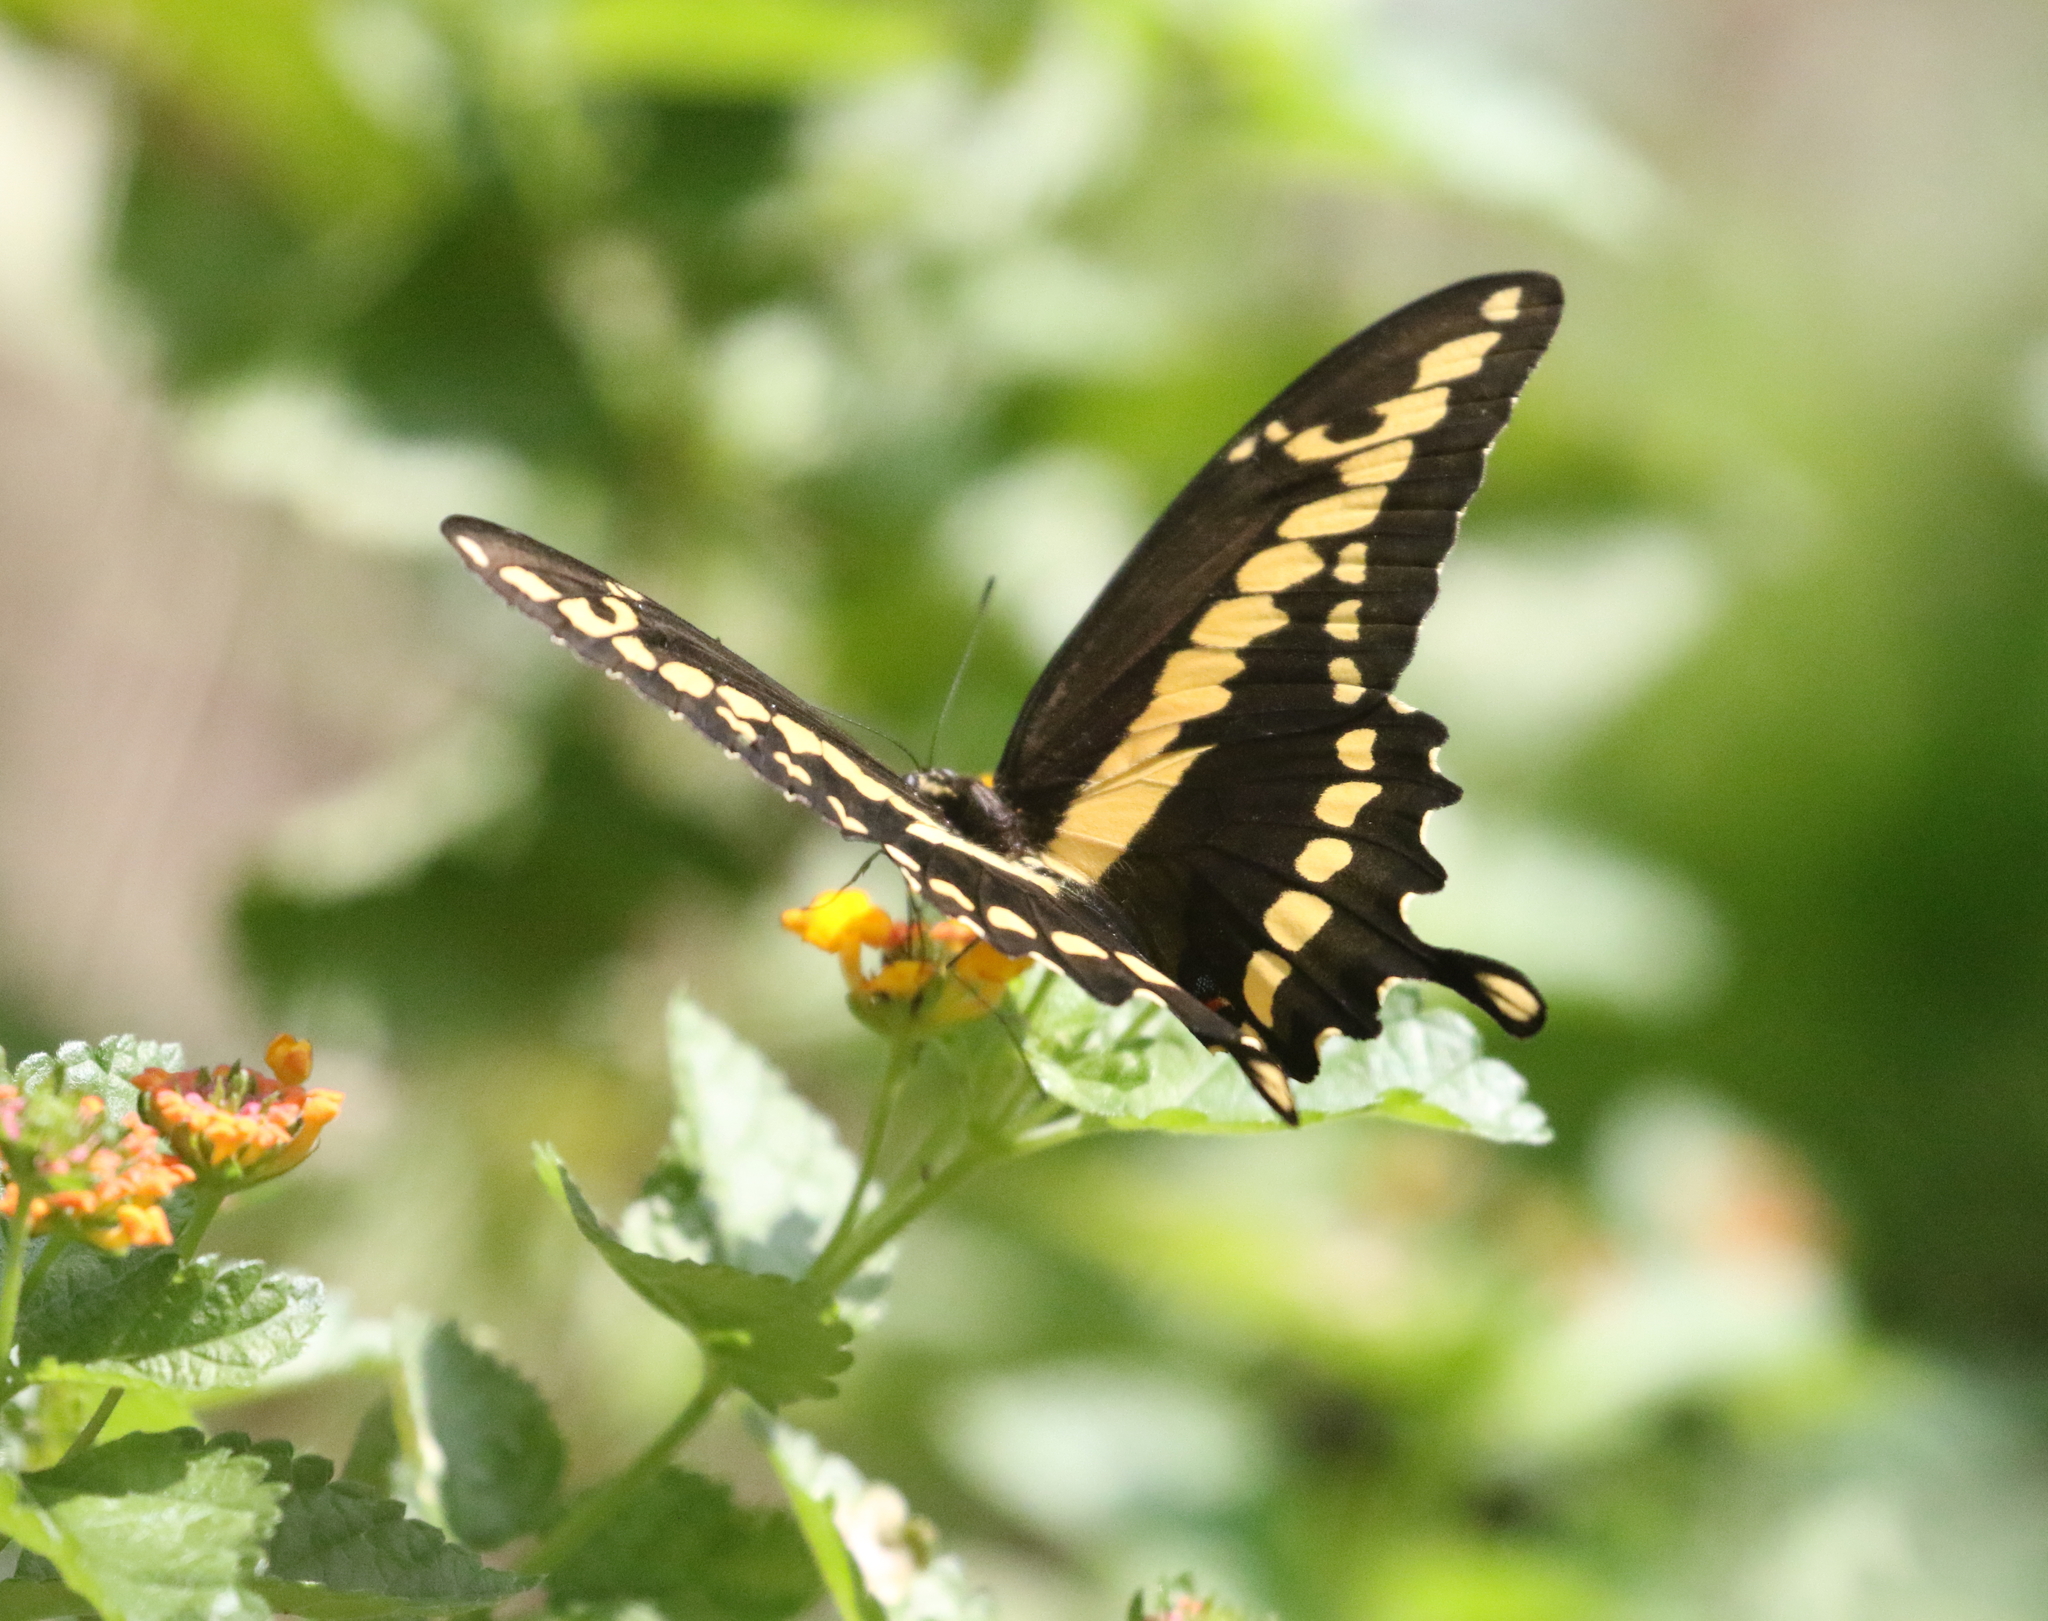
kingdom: Animalia
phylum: Arthropoda
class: Insecta
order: Lepidoptera
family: Papilionidae
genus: Papilio
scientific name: Papilio cresphontes
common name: Giant swallowtail
